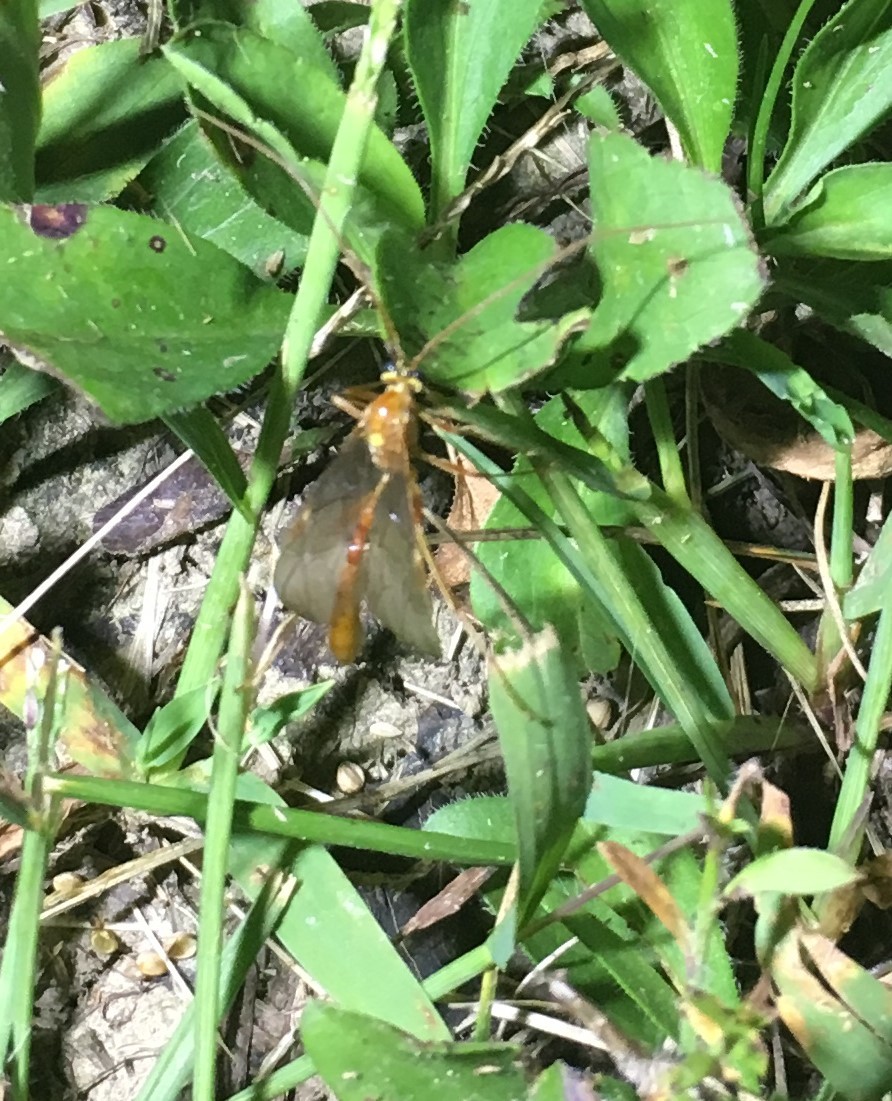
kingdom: Animalia
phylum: Arthropoda
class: Insecta
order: Hymenoptera
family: Ichneumonidae
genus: Ophion
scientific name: Ophion
